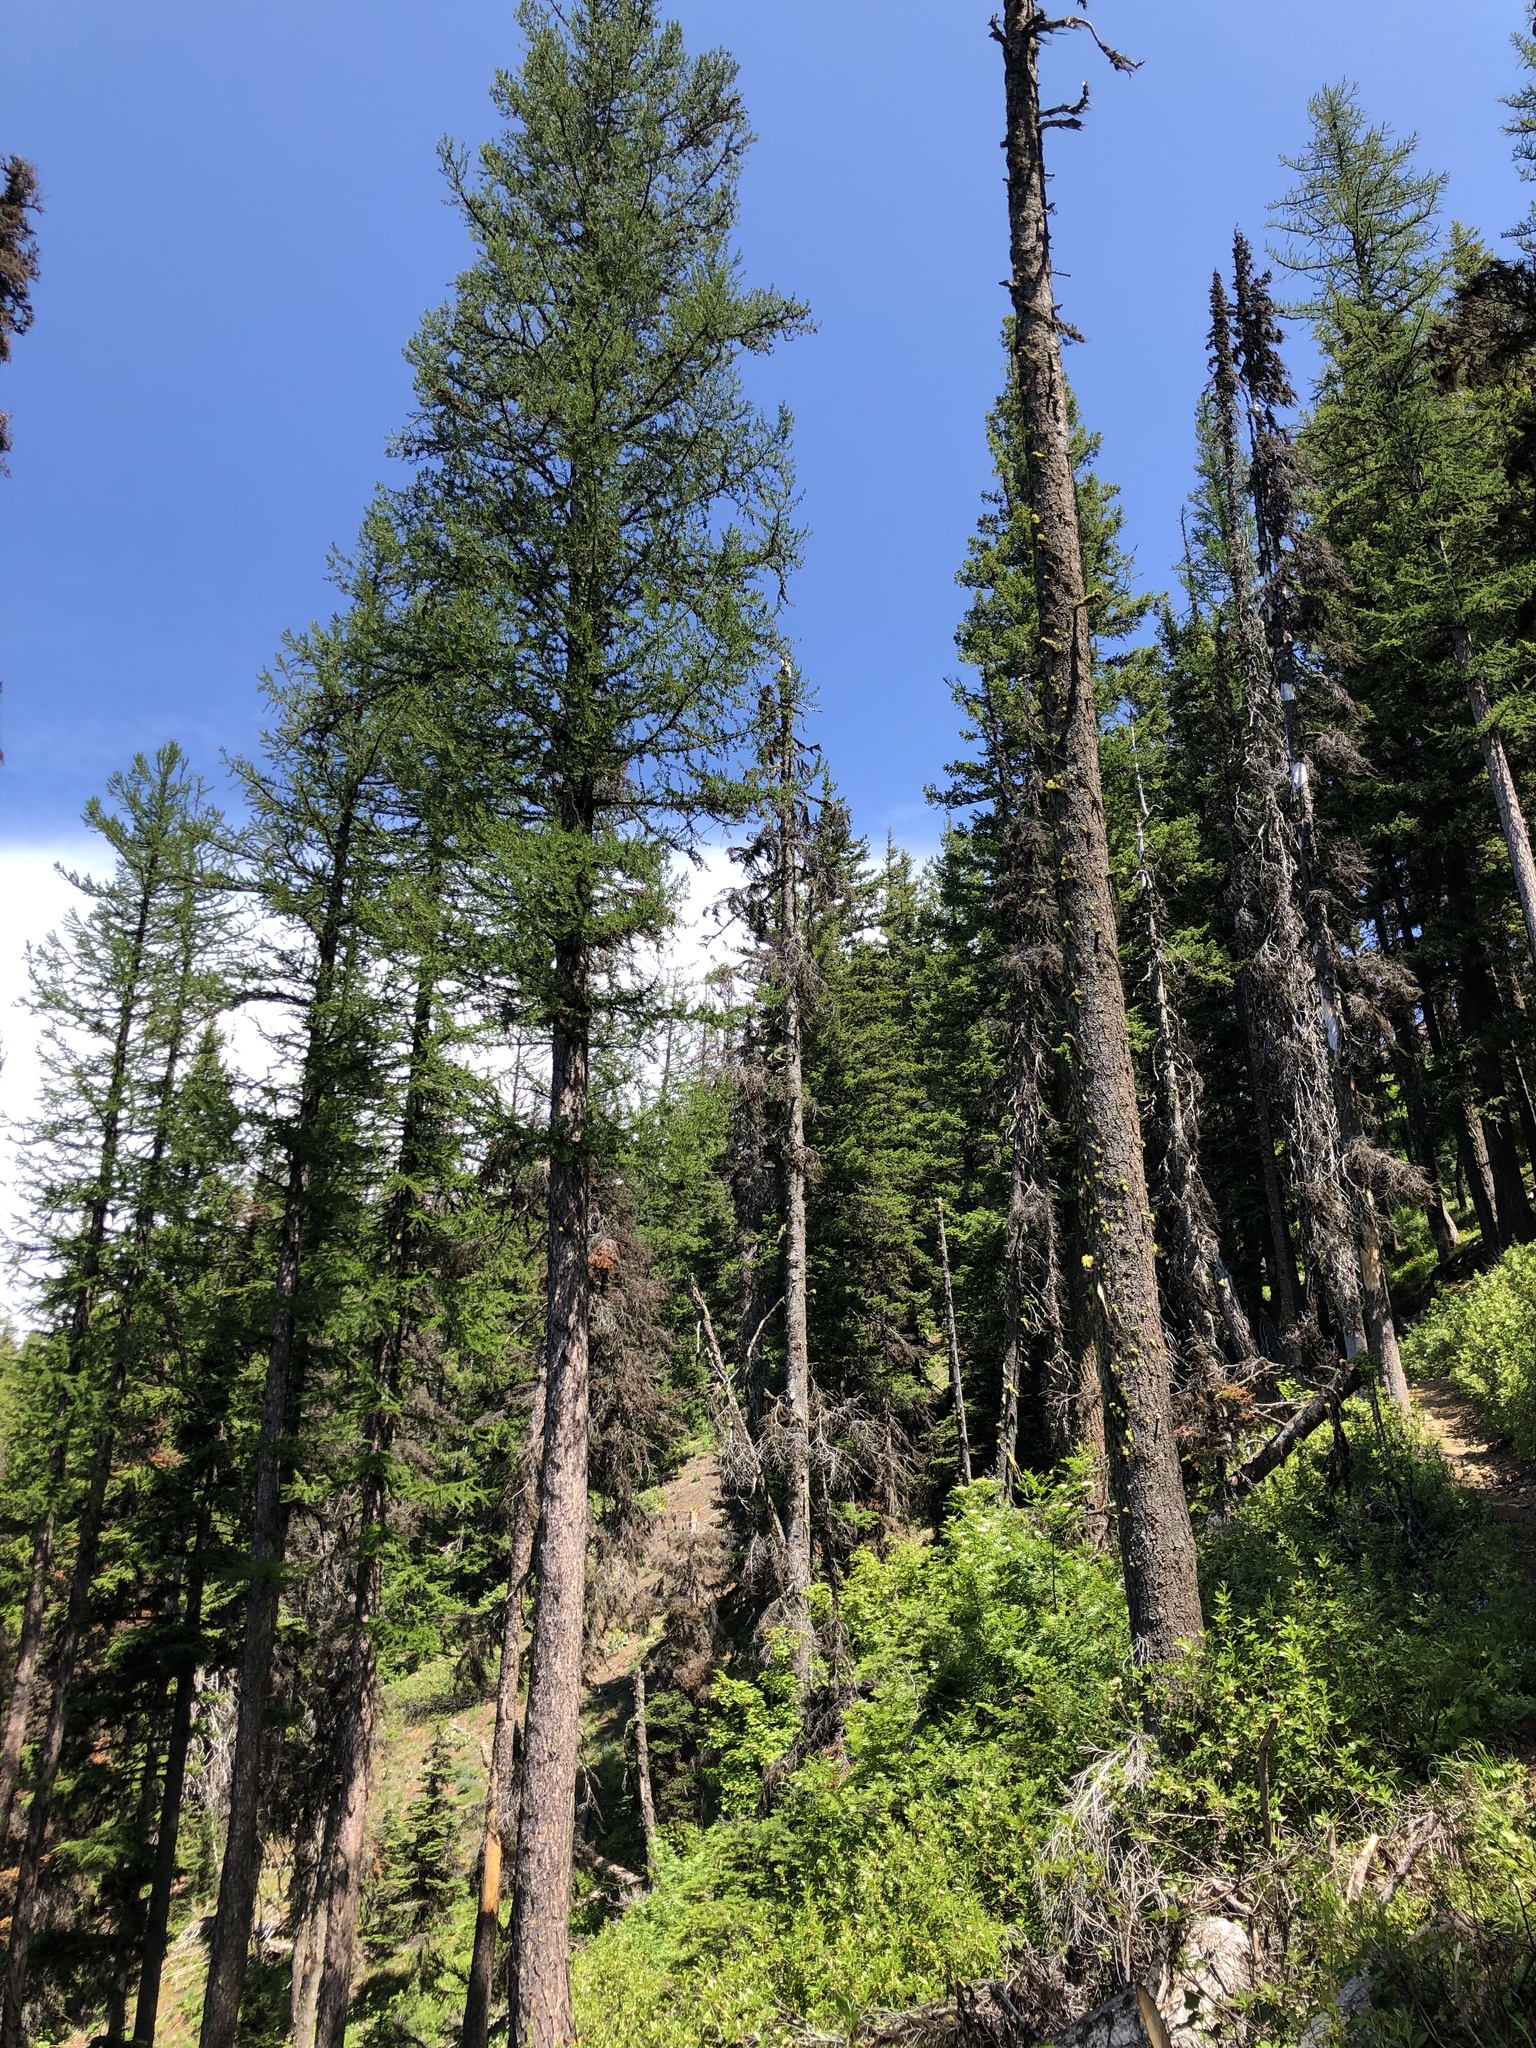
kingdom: Plantae
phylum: Tracheophyta
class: Pinopsida
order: Pinales
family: Pinaceae
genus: Larix
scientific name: Larix occidentalis
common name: Western larch
